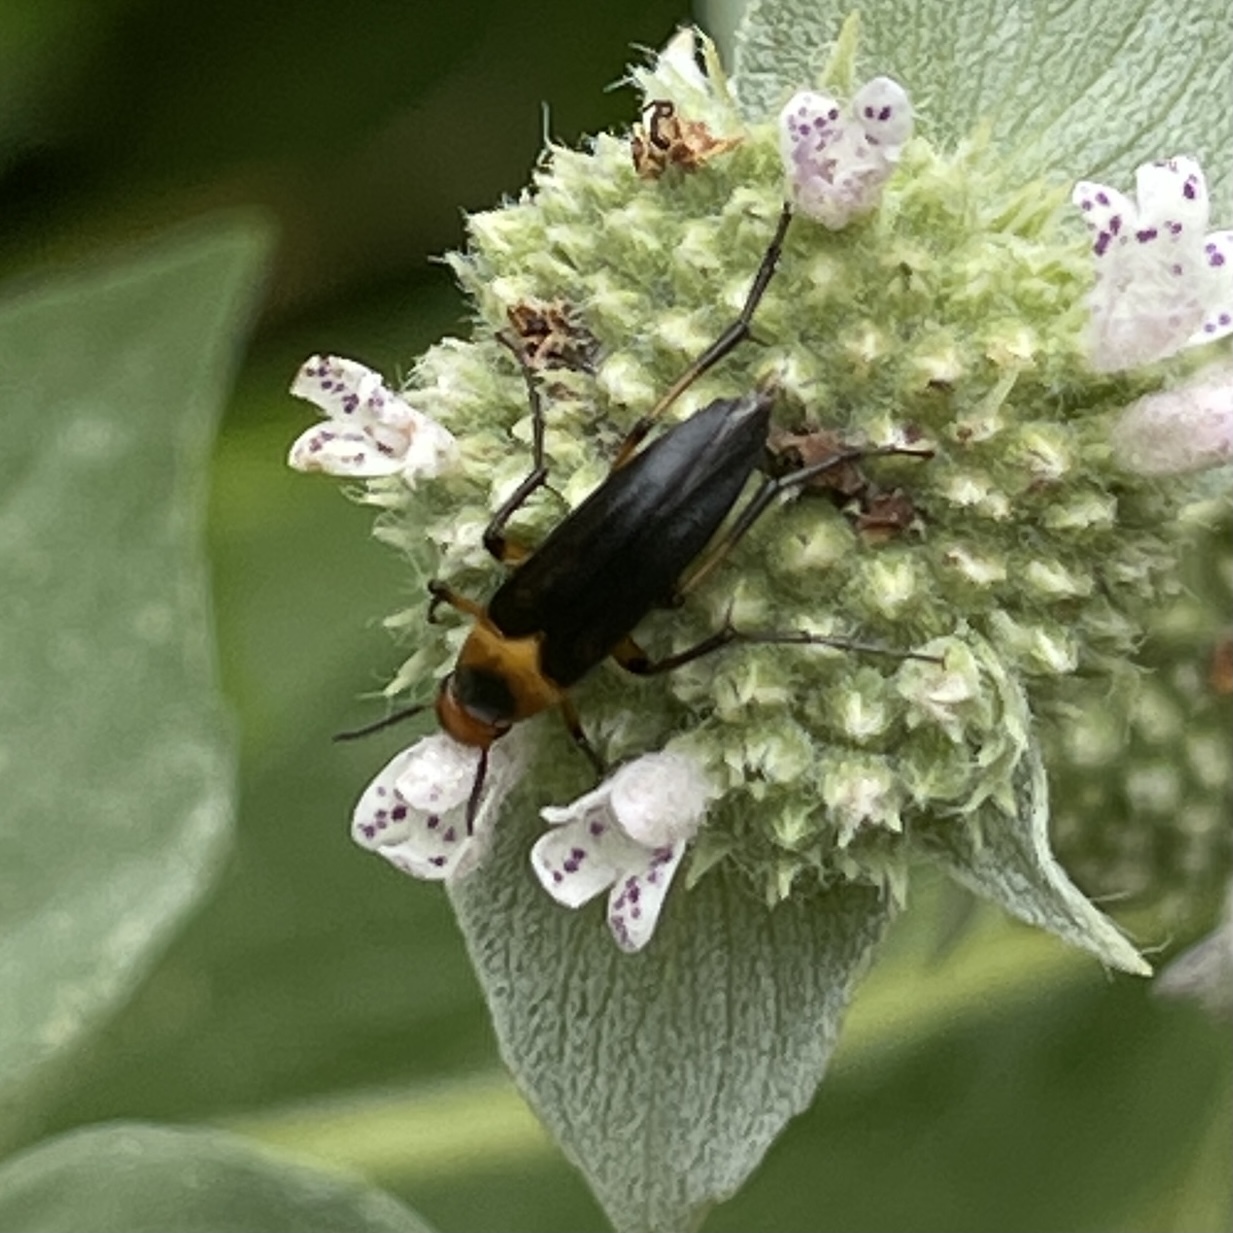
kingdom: Animalia
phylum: Arthropoda
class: Insecta
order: Coleoptera
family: Ripiphoridae
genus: Macrosiagon
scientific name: Macrosiagon limbatum
